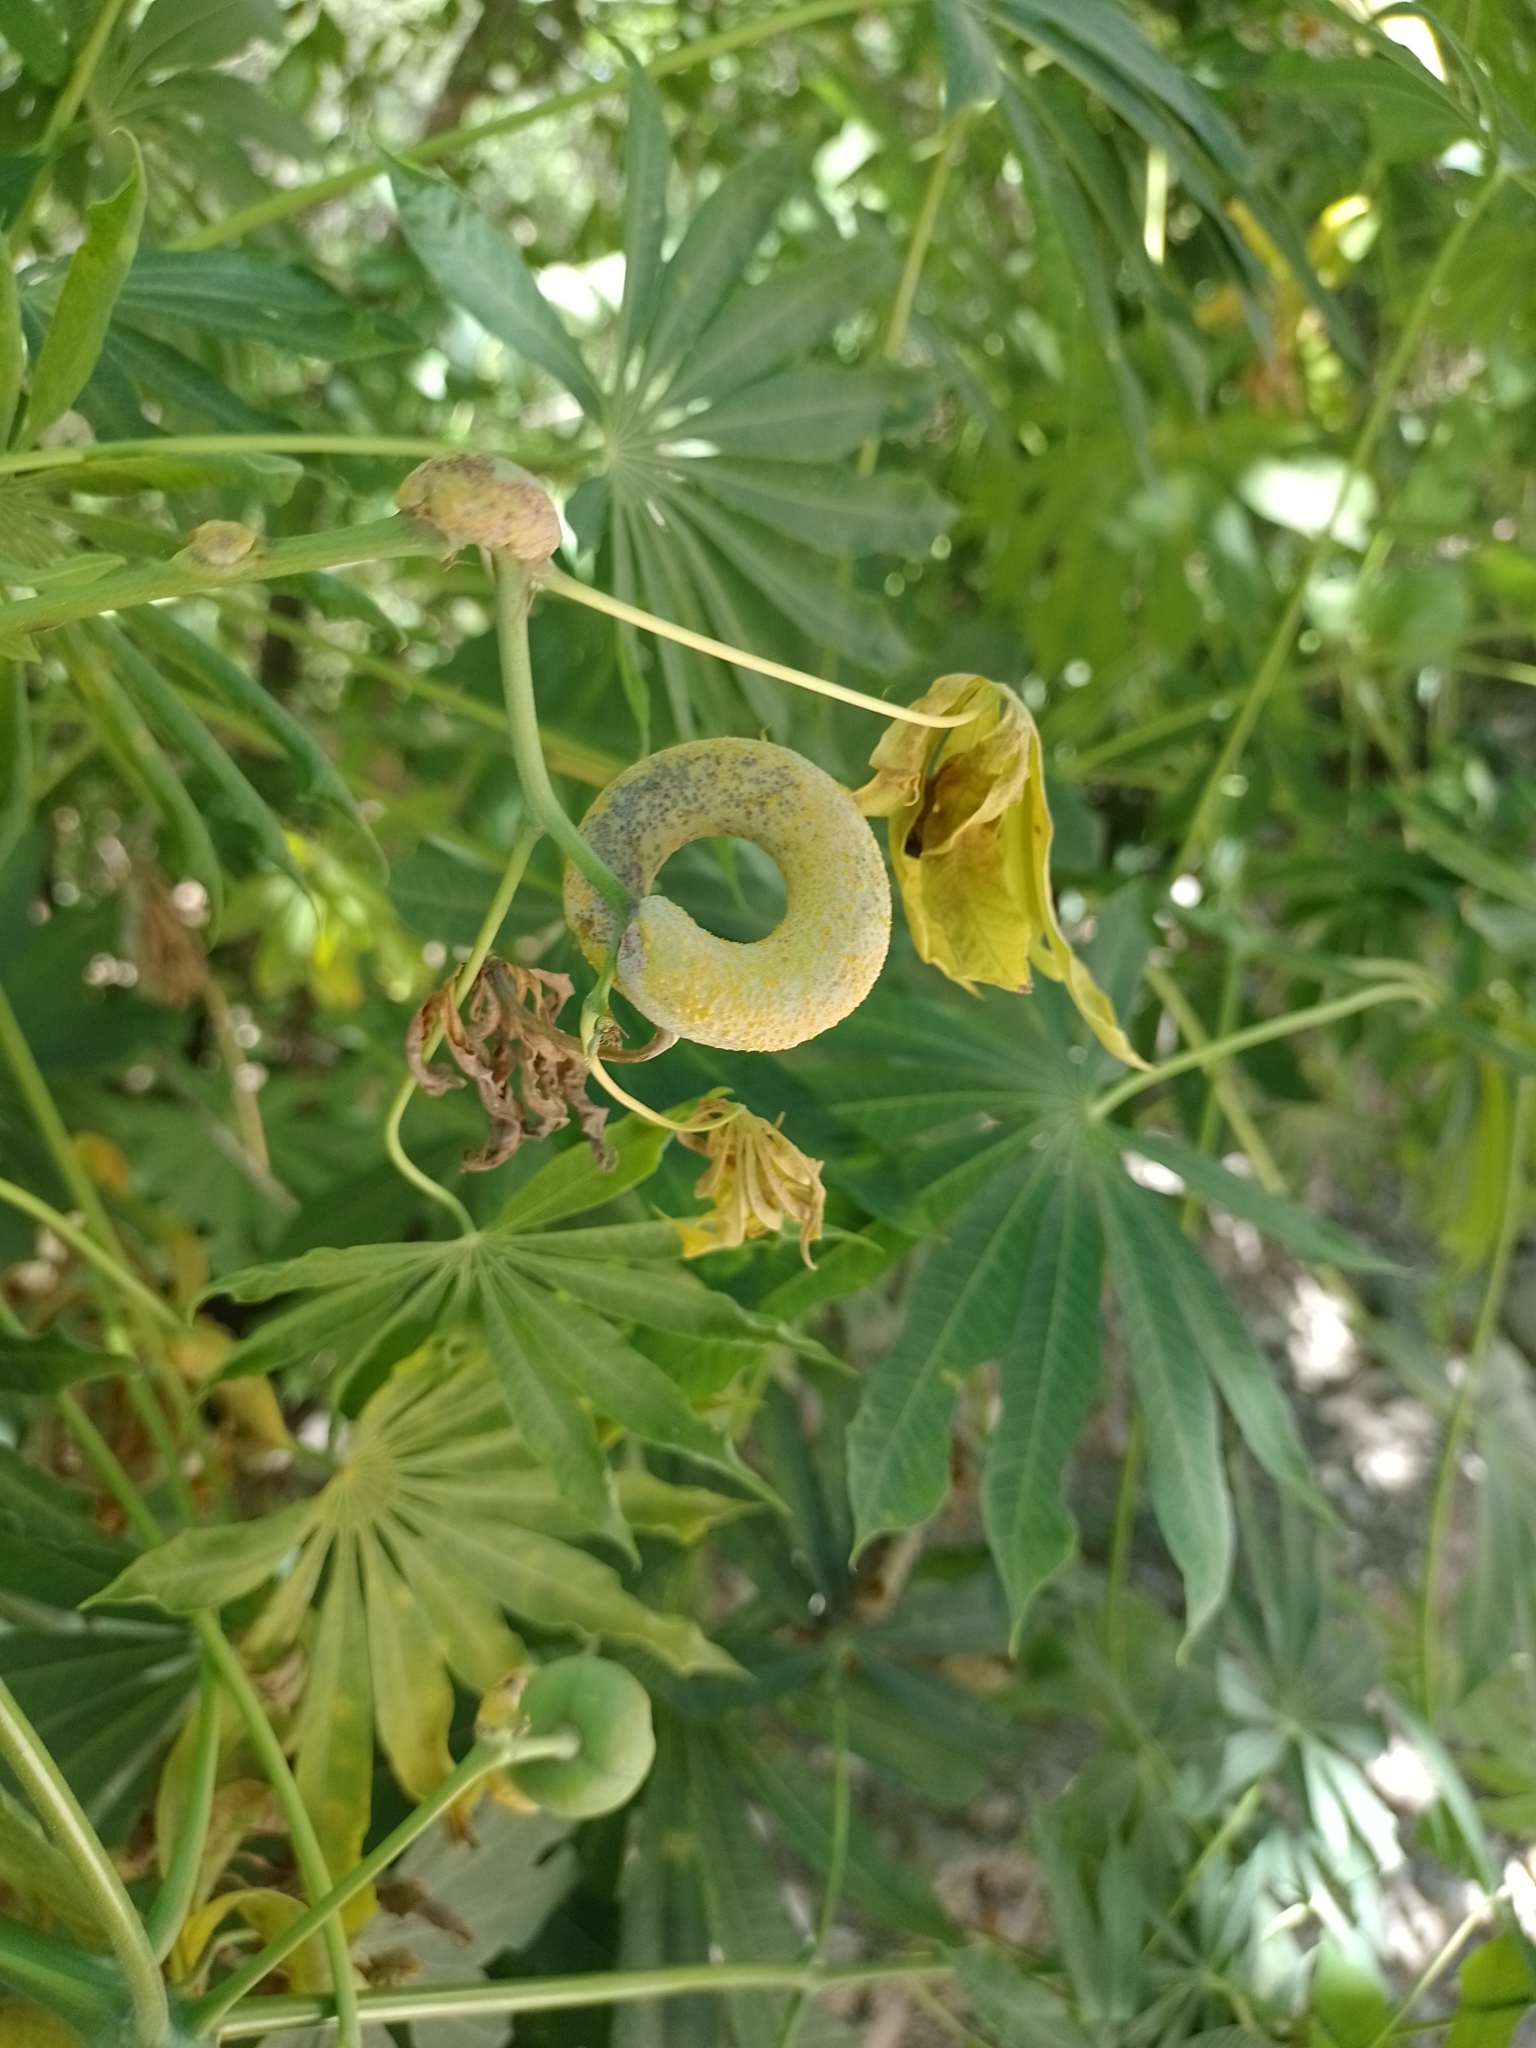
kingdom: Plantae
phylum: Tracheophyta
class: Magnoliopsida
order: Malpighiales
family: Euphorbiaceae
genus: Manihot
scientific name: Manihot grahamii
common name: Graham's manihot
